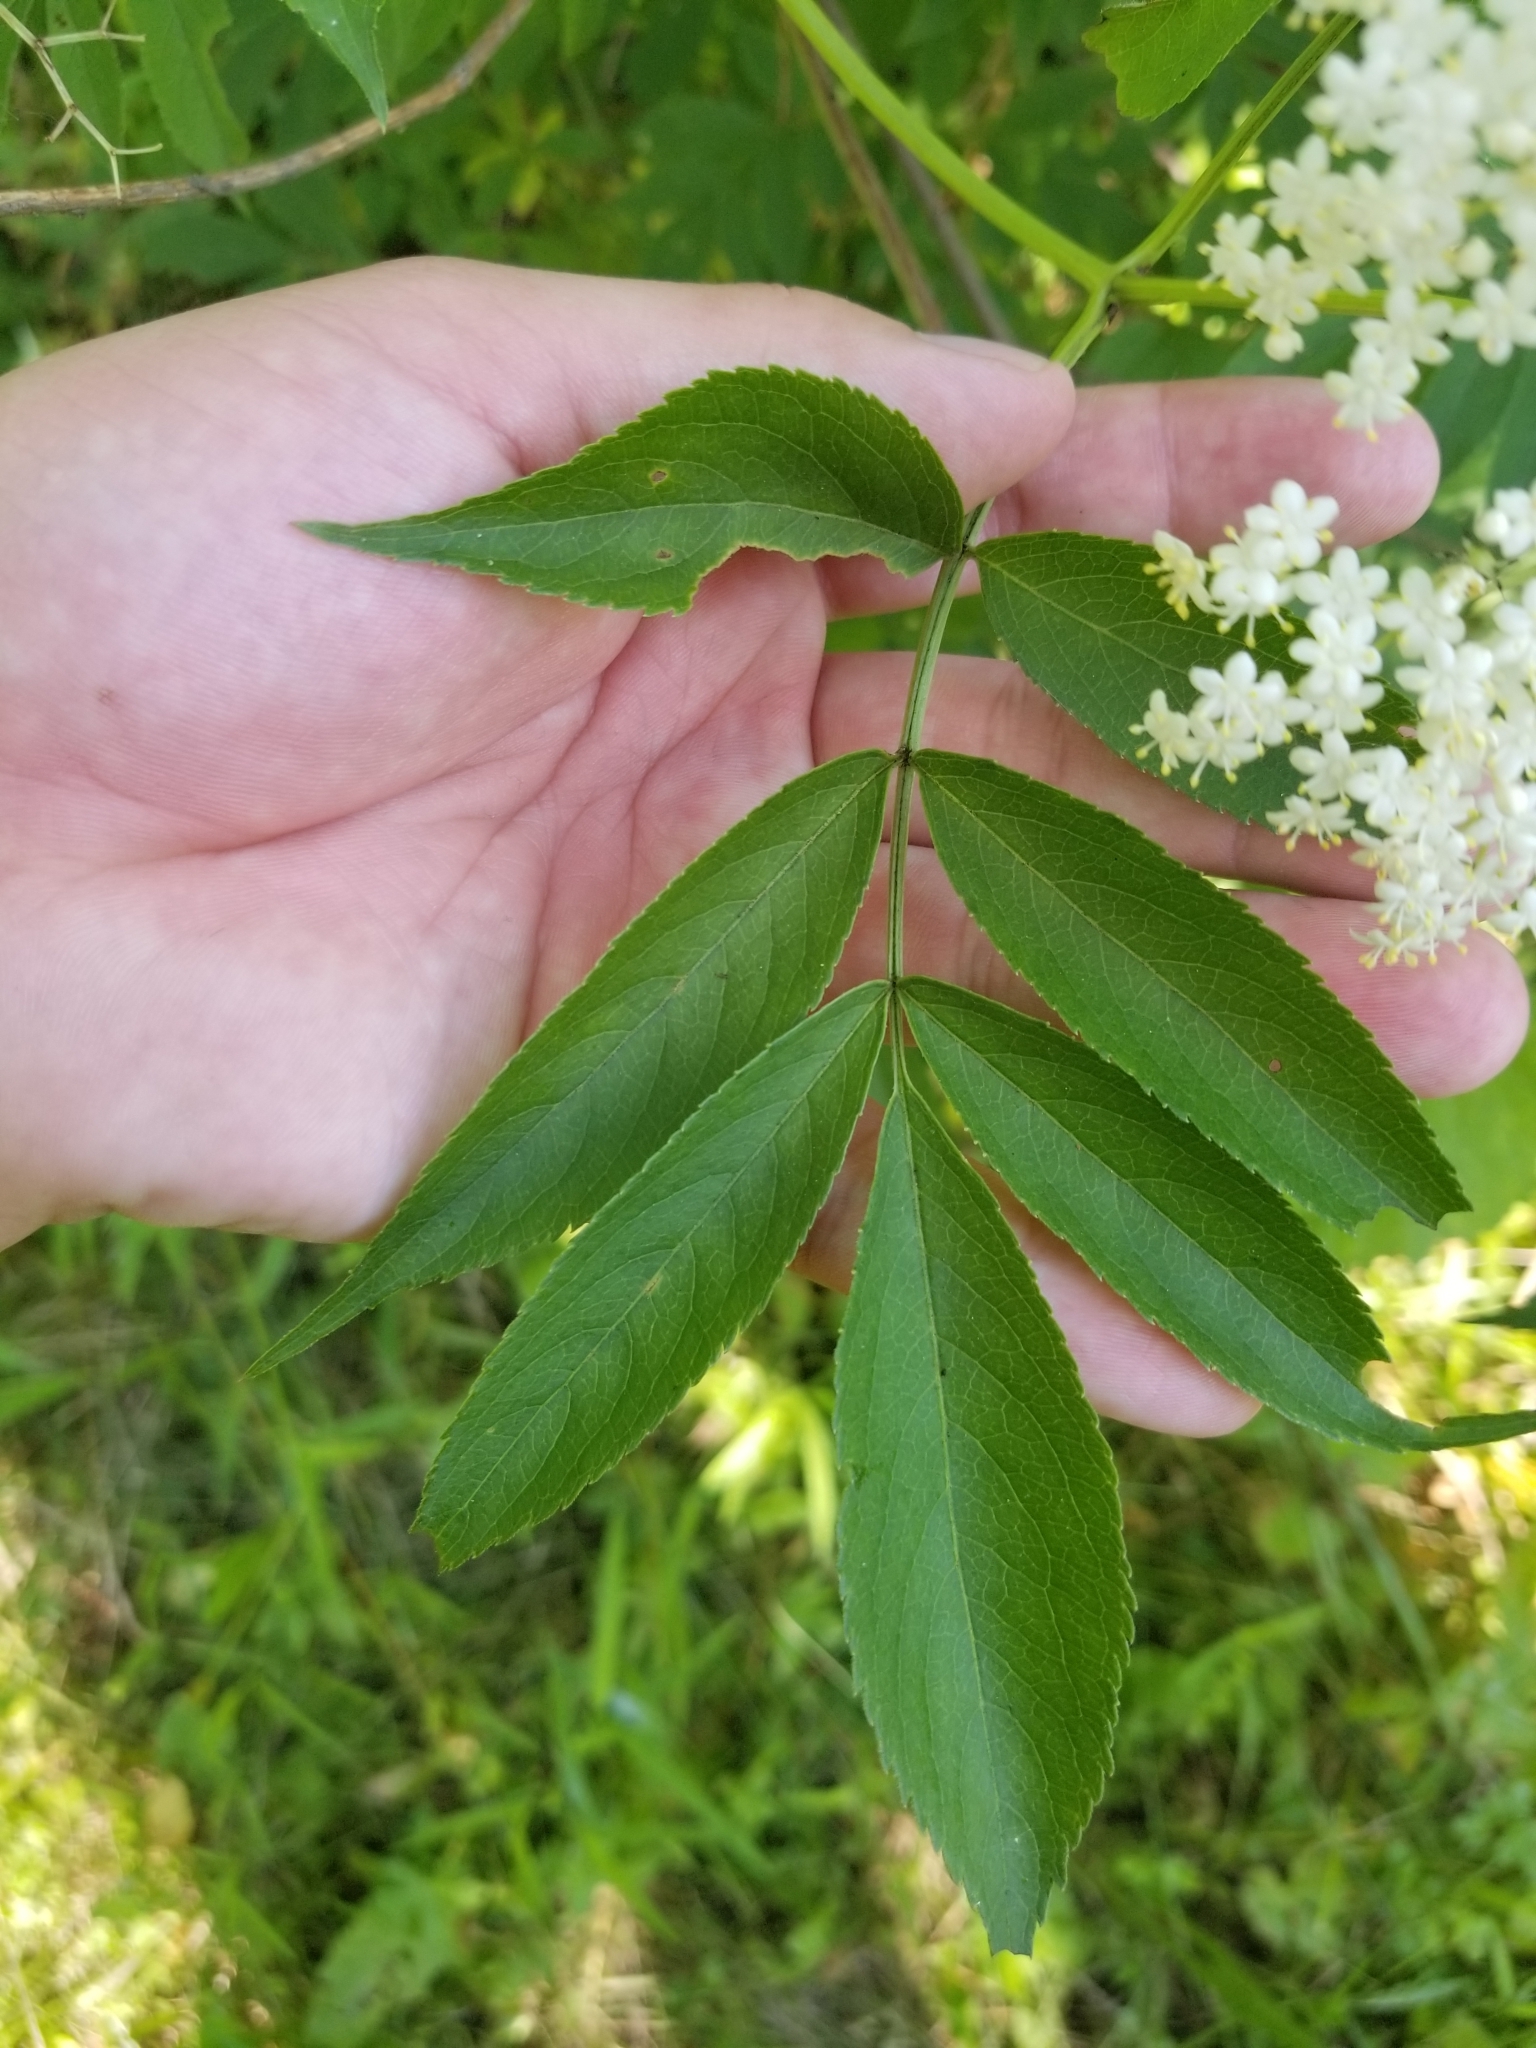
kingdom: Plantae
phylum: Tracheophyta
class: Magnoliopsida
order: Dipsacales
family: Viburnaceae
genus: Sambucus
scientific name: Sambucus canadensis
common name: American elder
